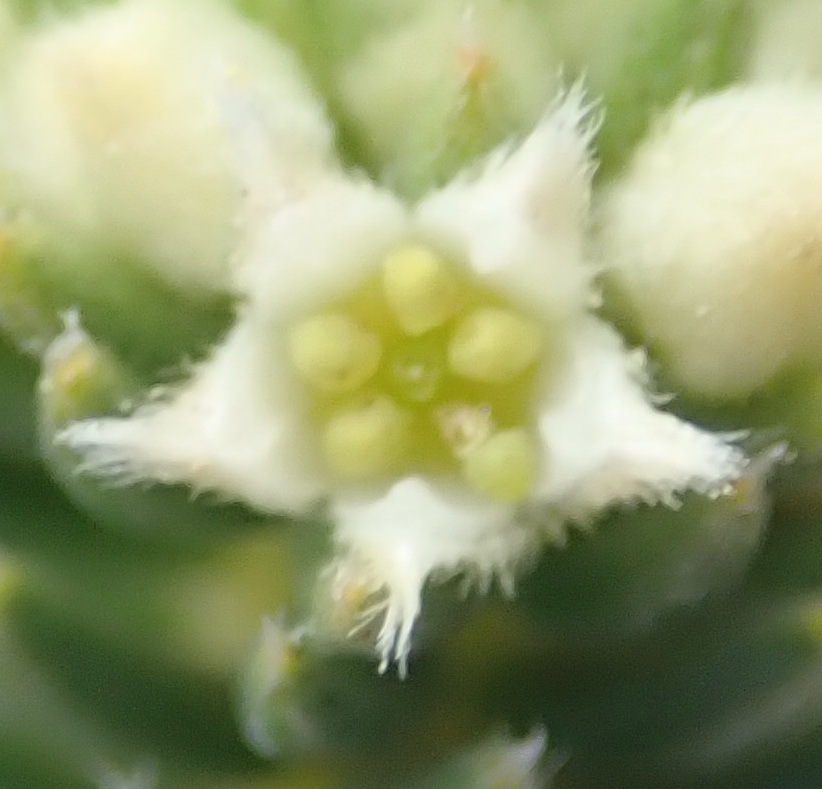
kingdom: Plantae
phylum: Tracheophyta
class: Magnoliopsida
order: Rosales
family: Rhamnaceae
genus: Phylica
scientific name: Phylica axillaris
